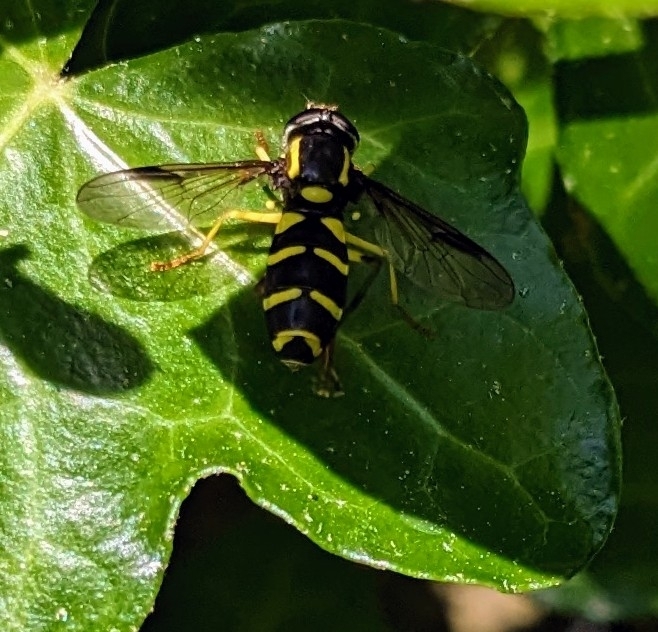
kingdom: Animalia
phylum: Arthropoda
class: Insecta
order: Diptera
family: Syrphidae
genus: Philhelius
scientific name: Philhelius pedissequum
